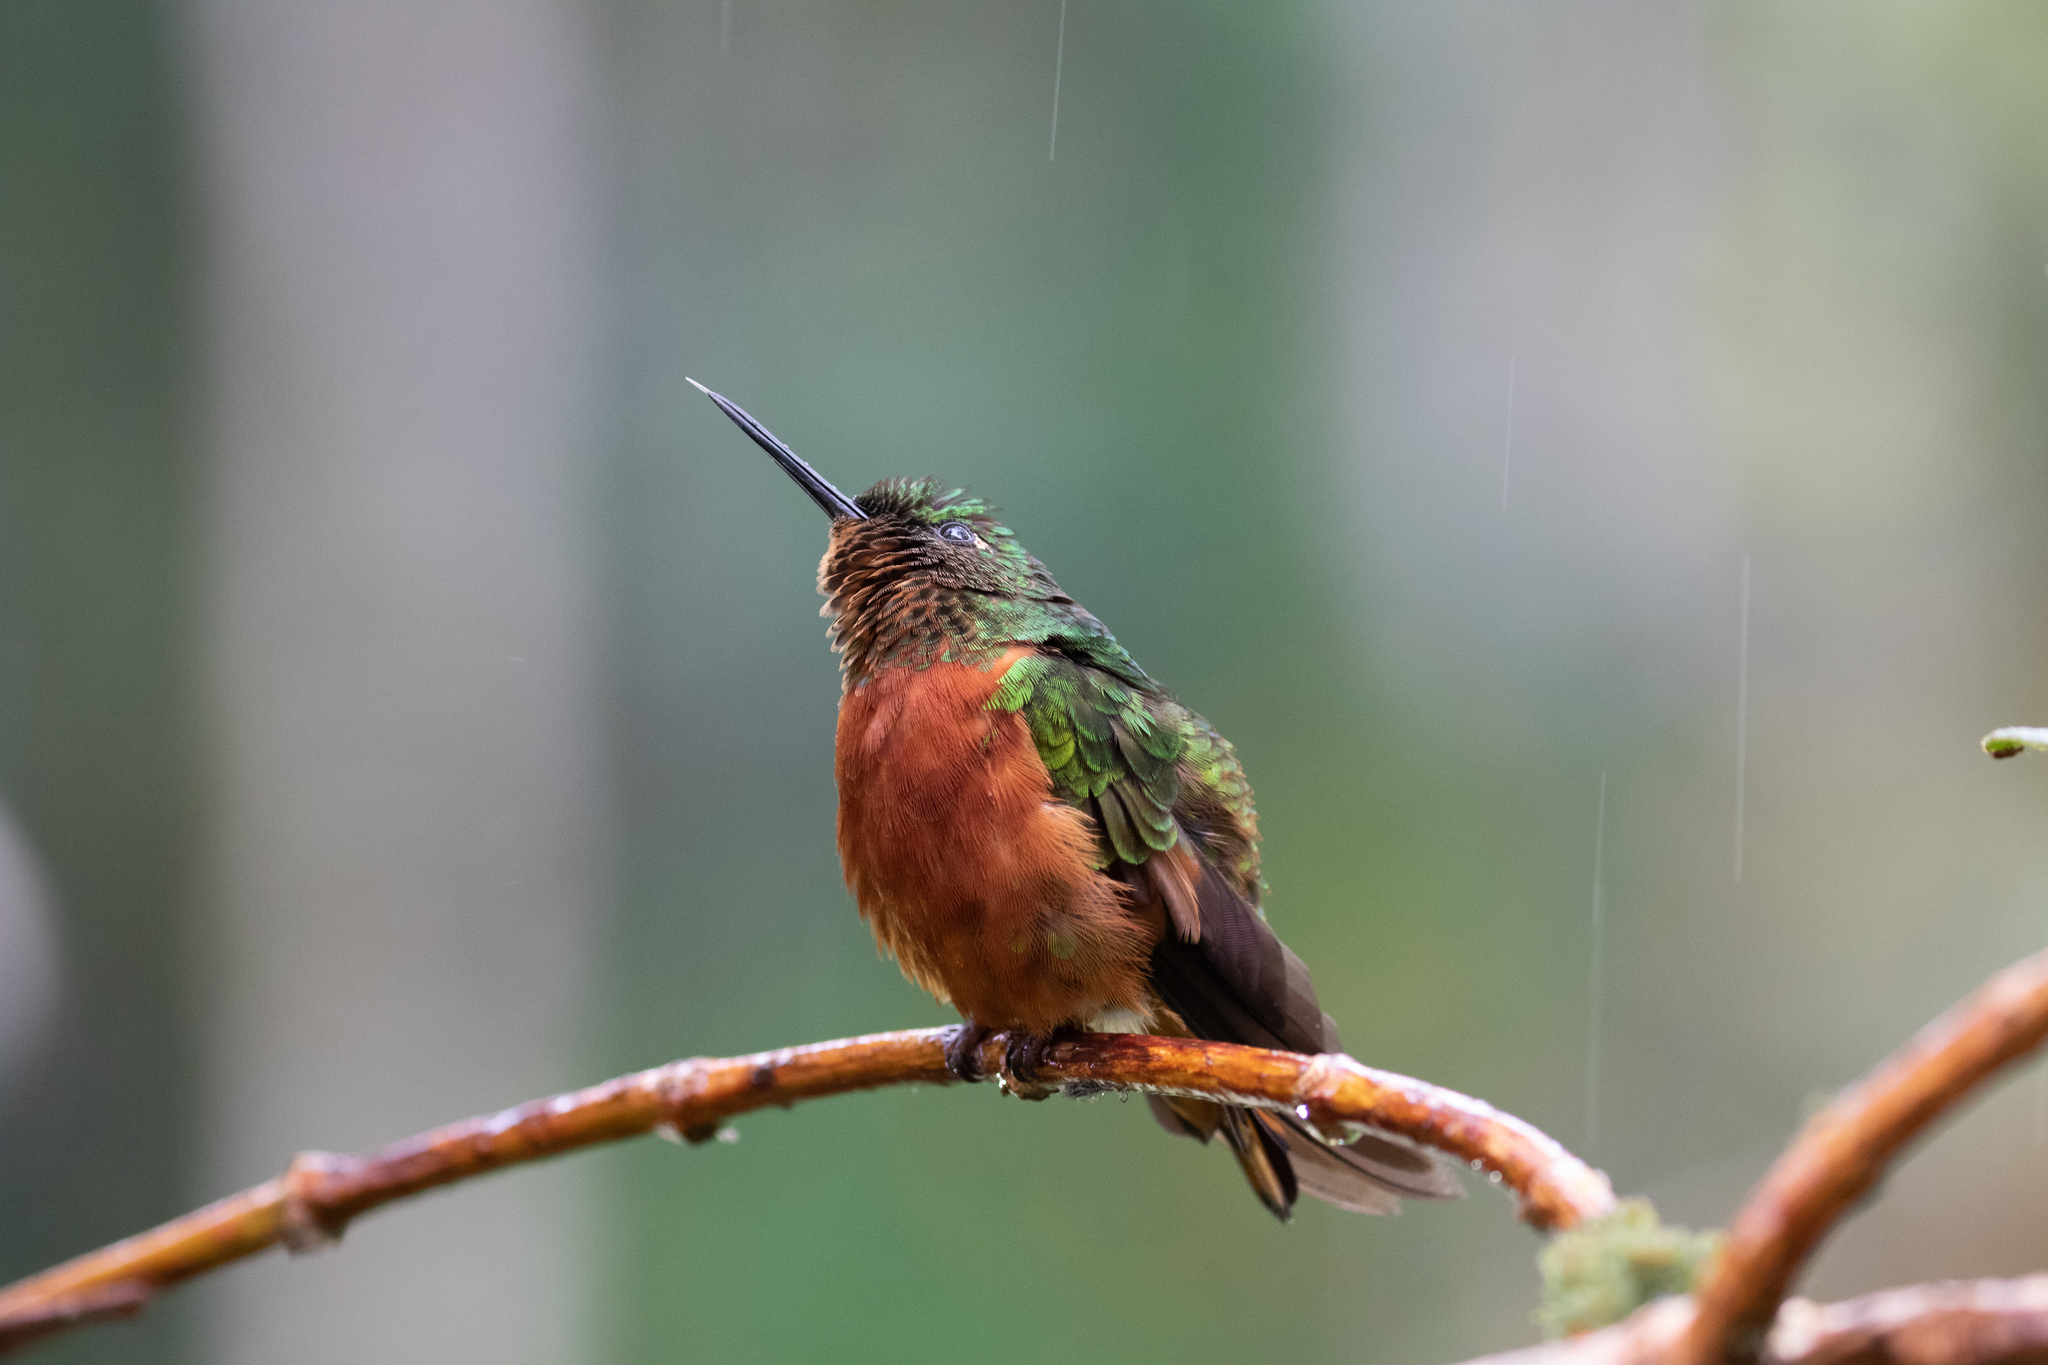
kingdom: Animalia
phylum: Chordata
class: Aves
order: Apodiformes
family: Trochilidae
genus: Boissonneaua
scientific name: Boissonneaua matthewsii
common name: Chestnut-breasted coronet
